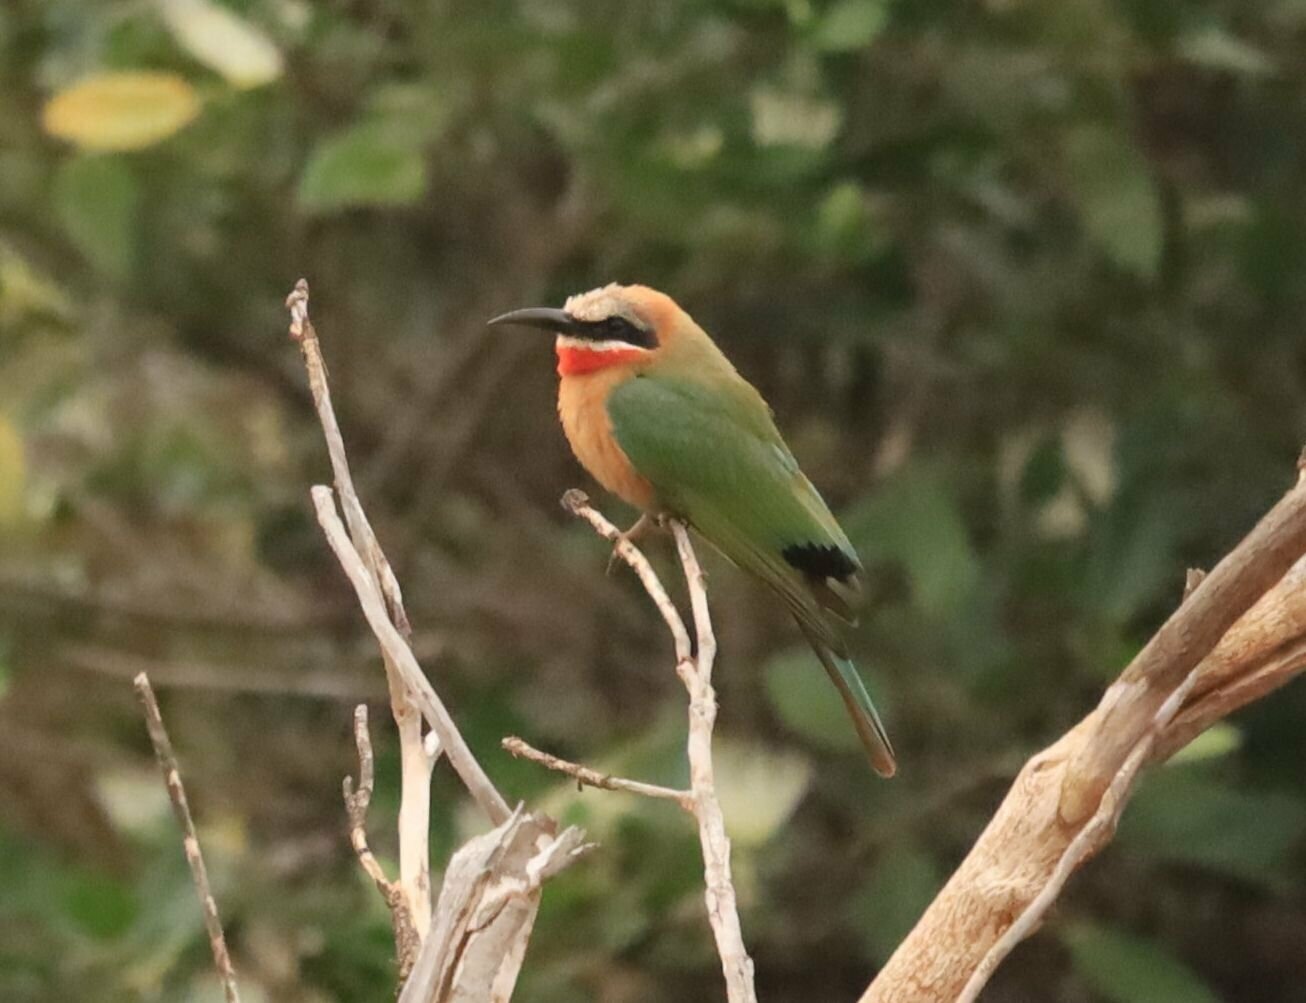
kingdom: Animalia
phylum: Chordata
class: Aves
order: Coraciiformes
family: Meropidae
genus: Merops
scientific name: Merops bullockoides
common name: White-fronted bee-eater
